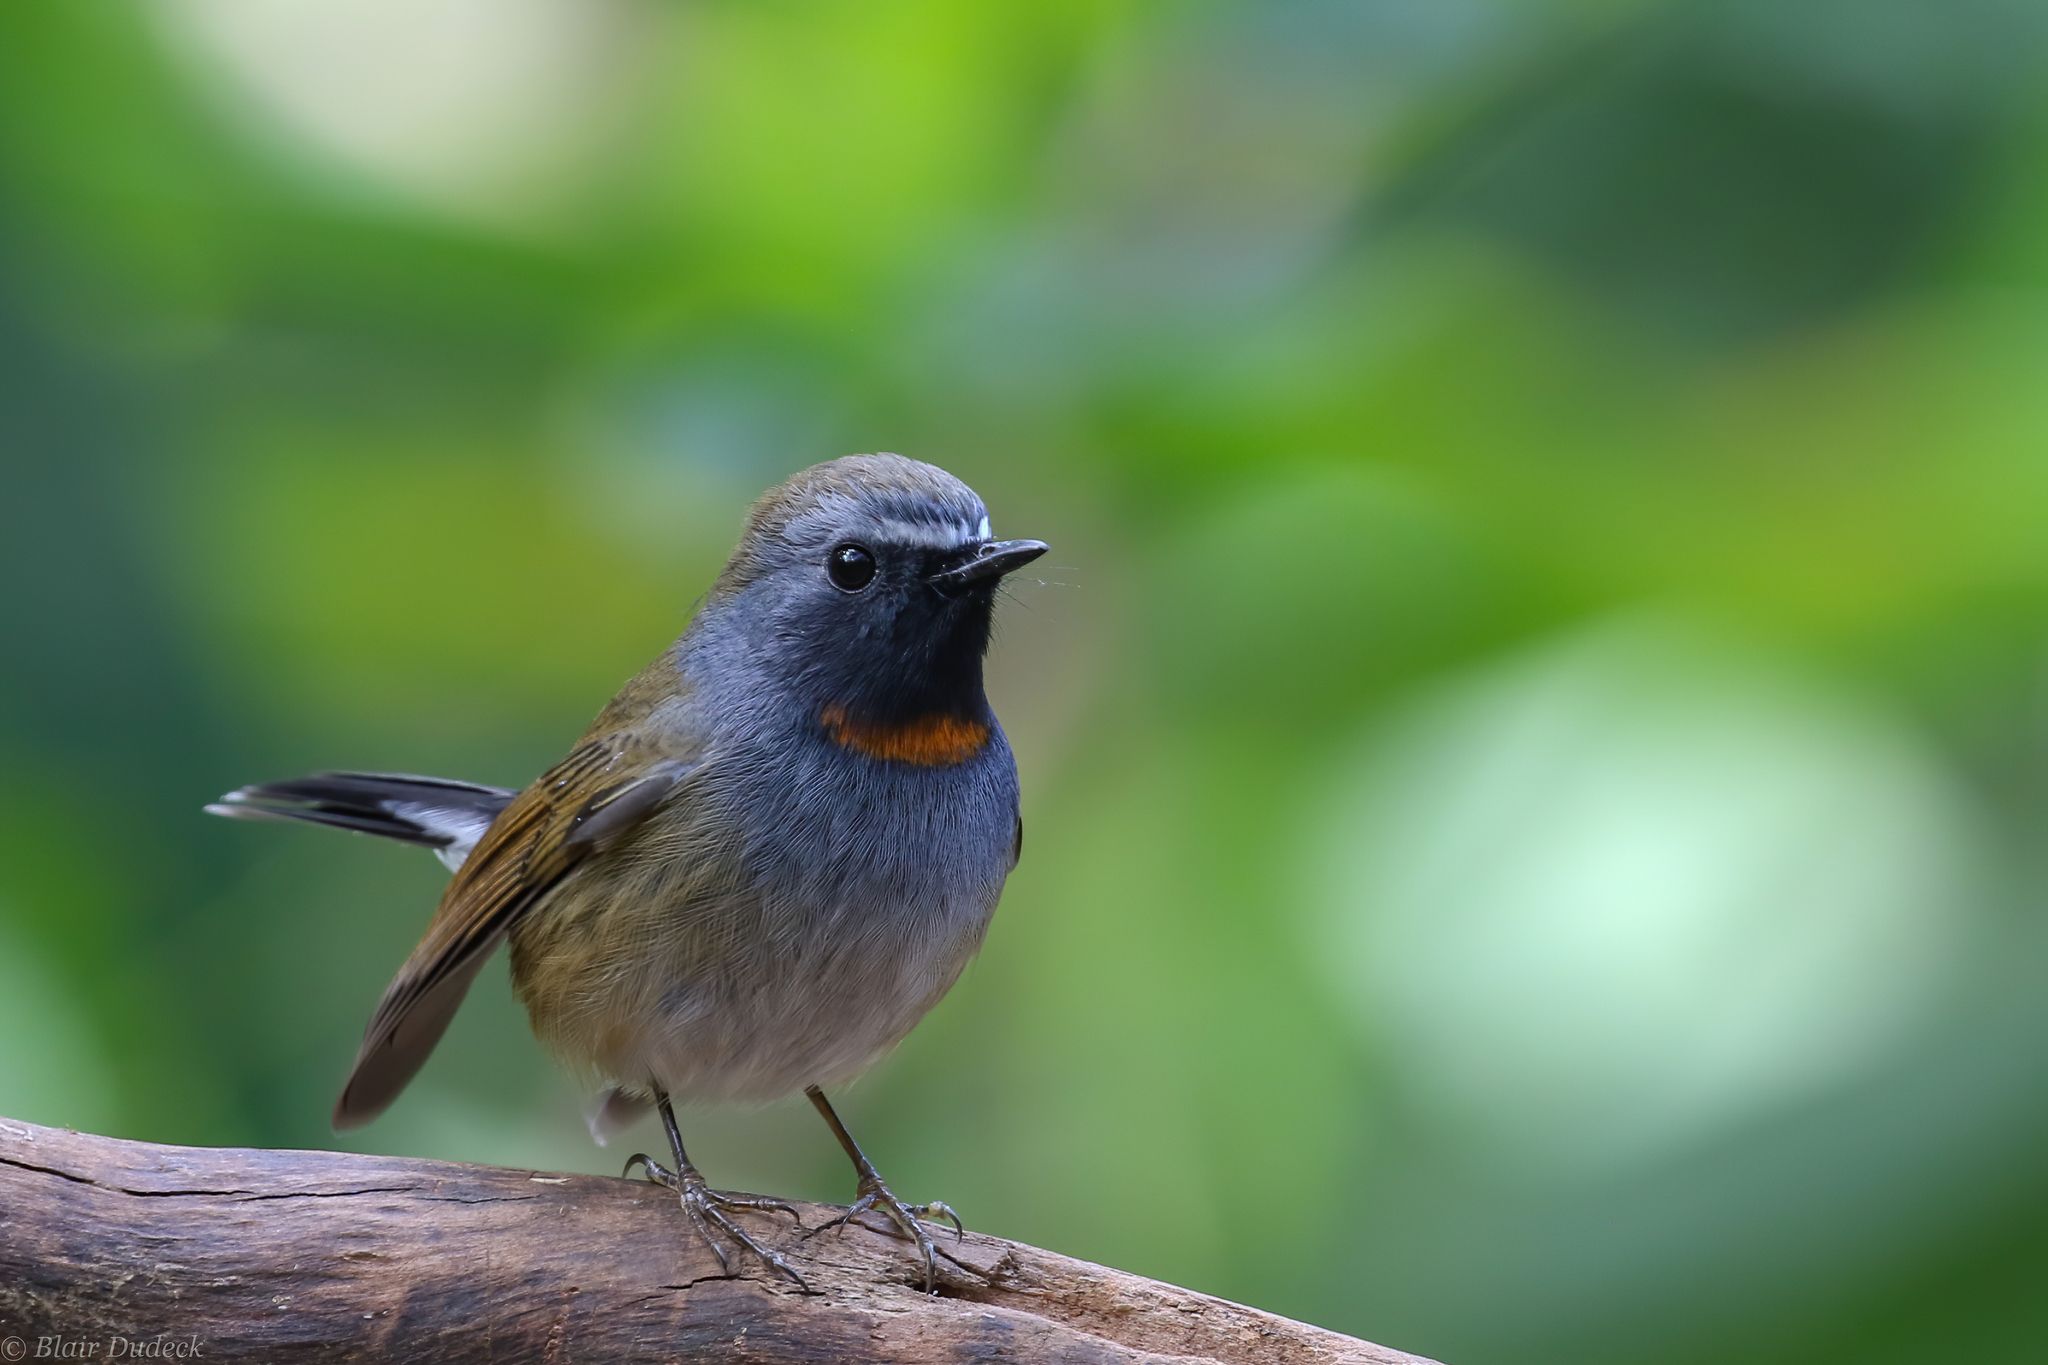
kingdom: Animalia
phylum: Chordata
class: Aves
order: Passeriformes
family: Muscicapidae
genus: Ficedula
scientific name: Ficedula strophiata
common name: Rufous-gorgeted flycatcher
